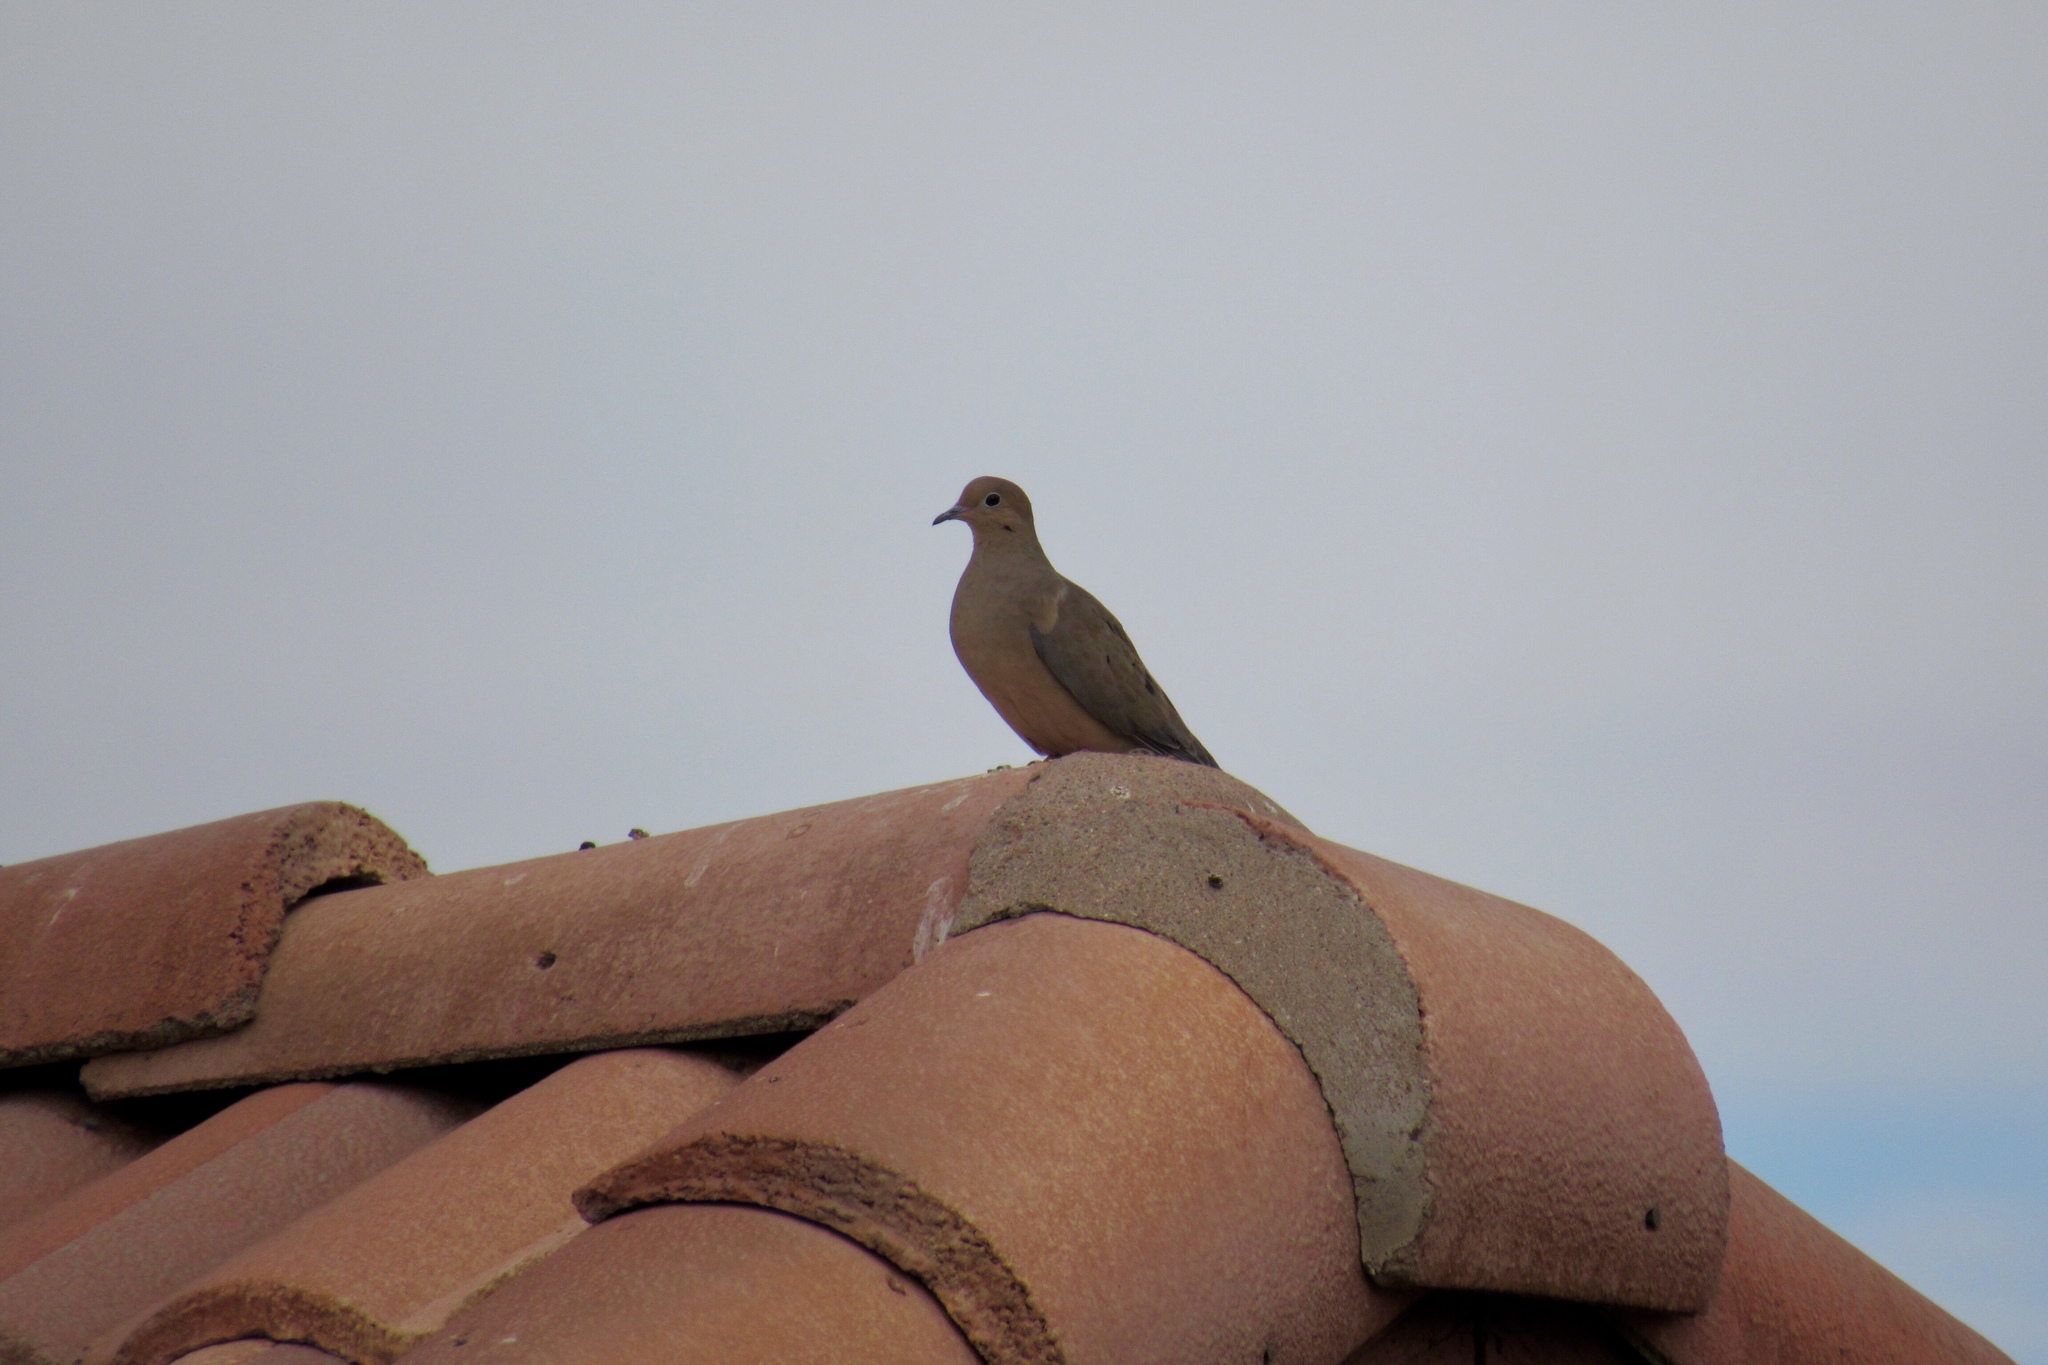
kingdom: Animalia
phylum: Chordata
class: Aves
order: Columbiformes
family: Columbidae
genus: Zenaida
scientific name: Zenaida macroura
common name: Mourning dove
